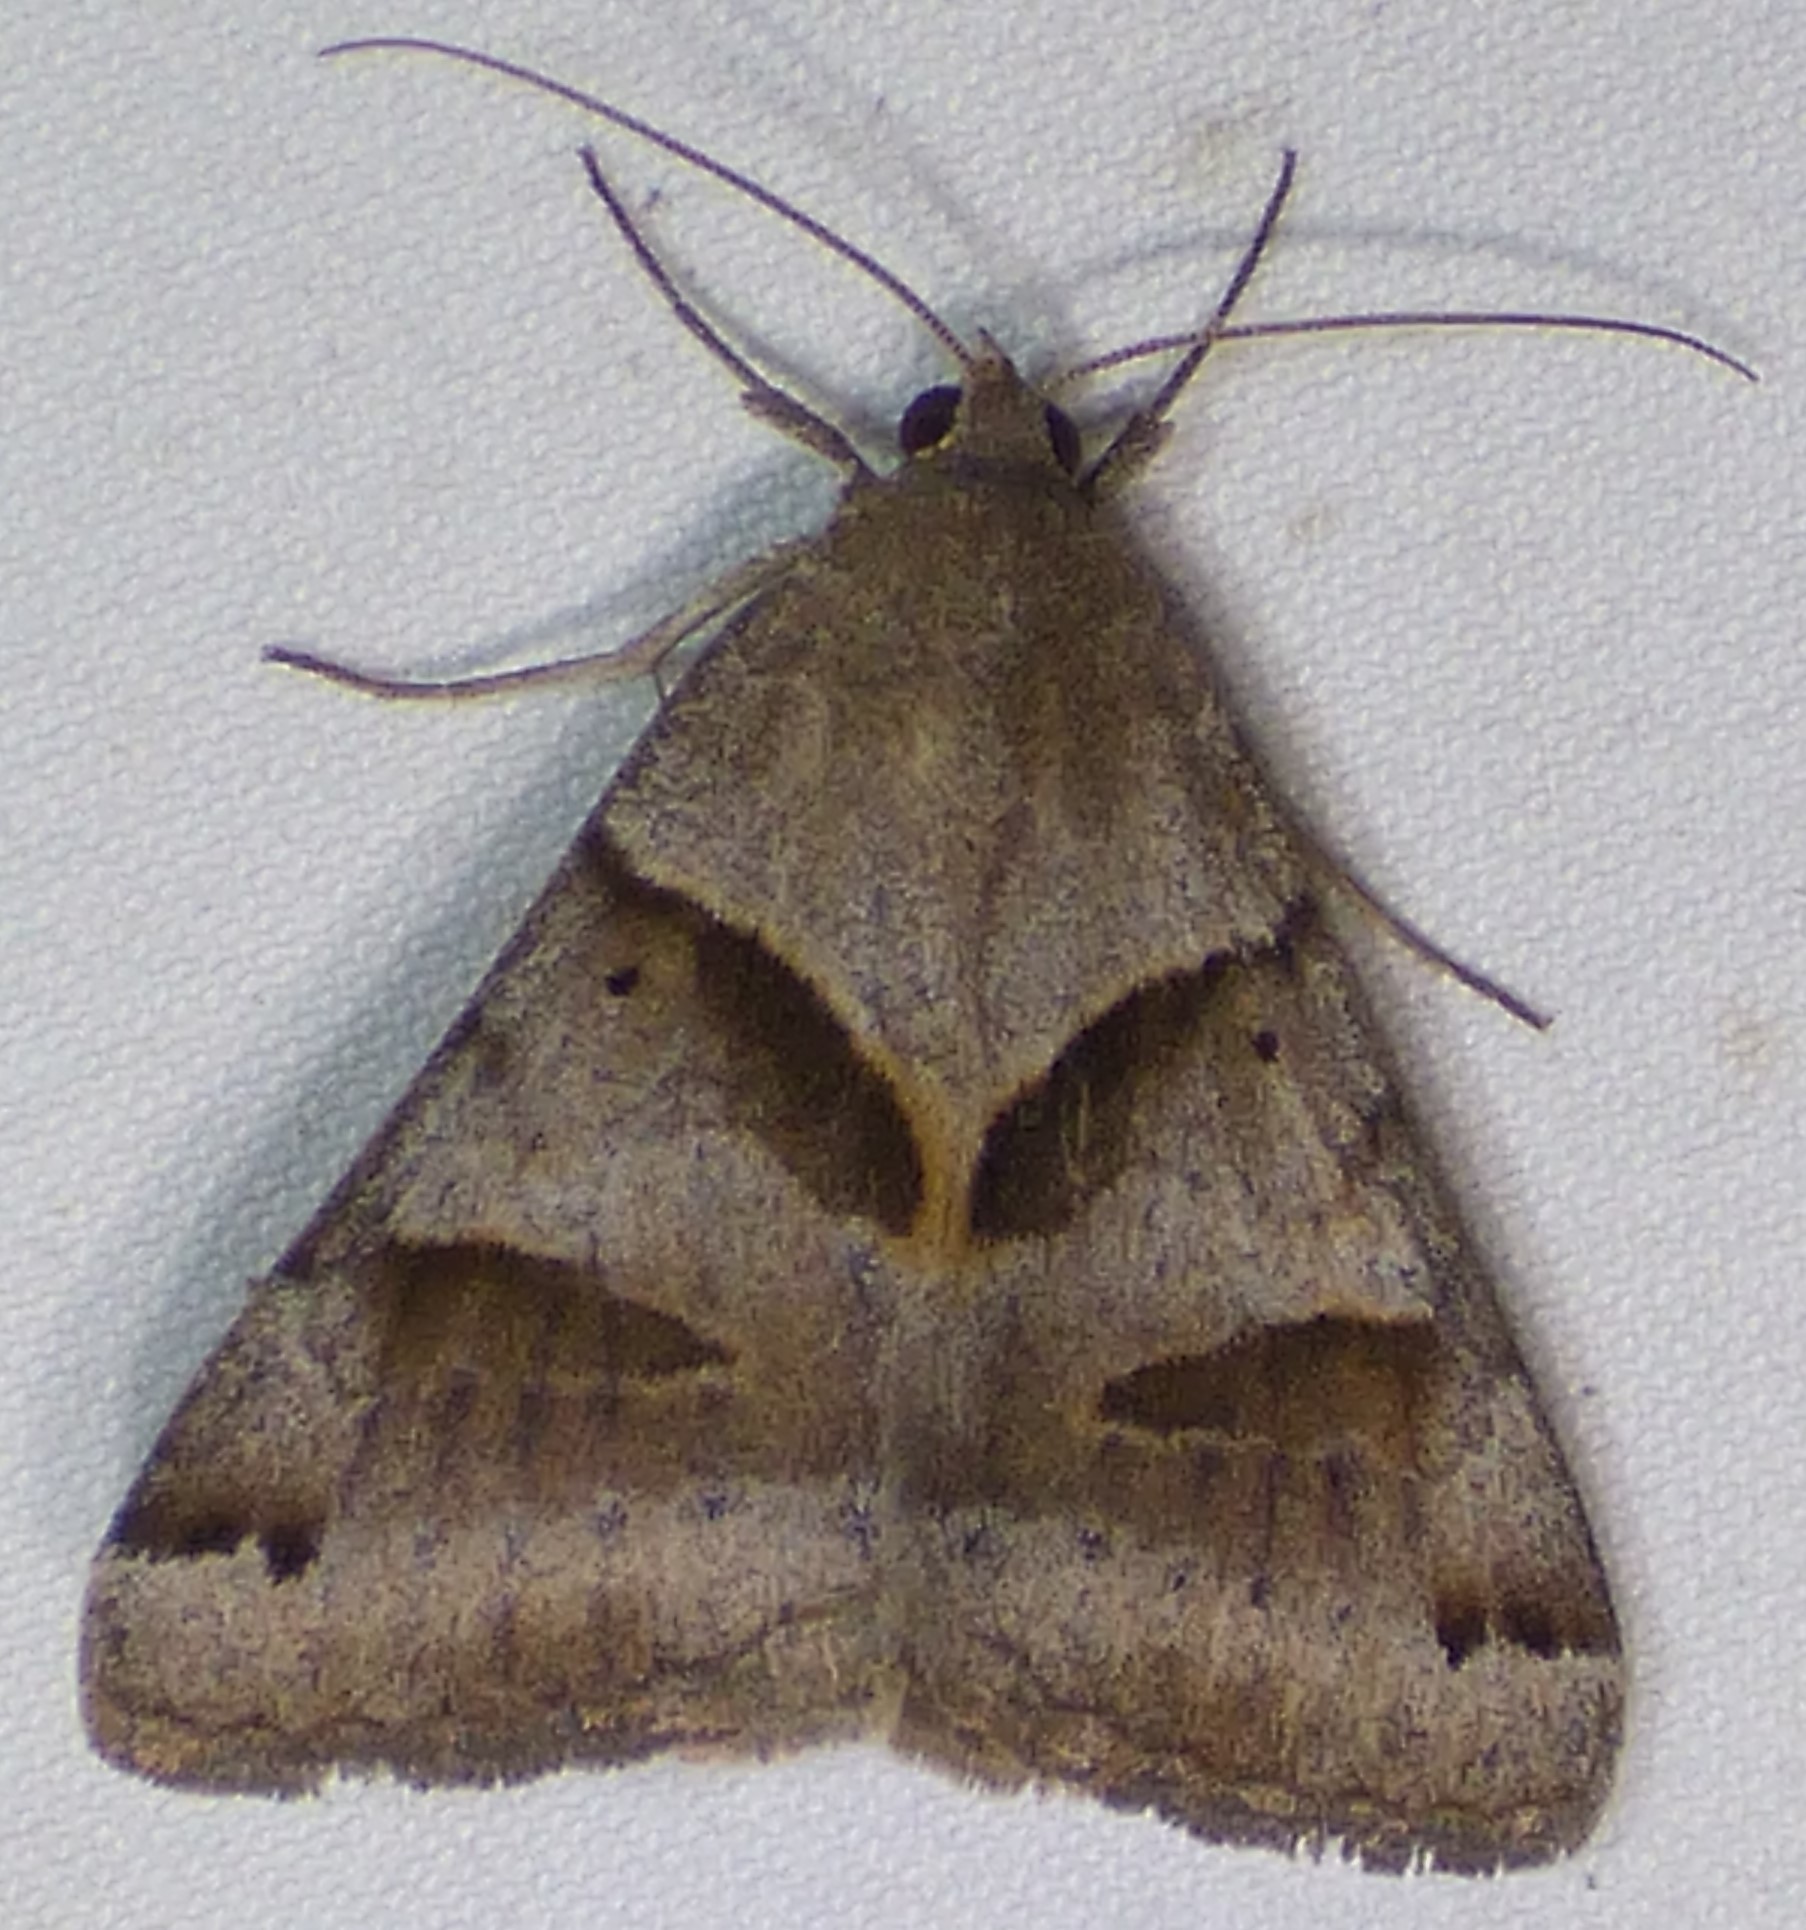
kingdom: Animalia
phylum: Arthropoda
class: Insecta
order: Lepidoptera
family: Erebidae
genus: Caenurgina
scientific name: Caenurgina erechtea
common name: Forage looper moth
